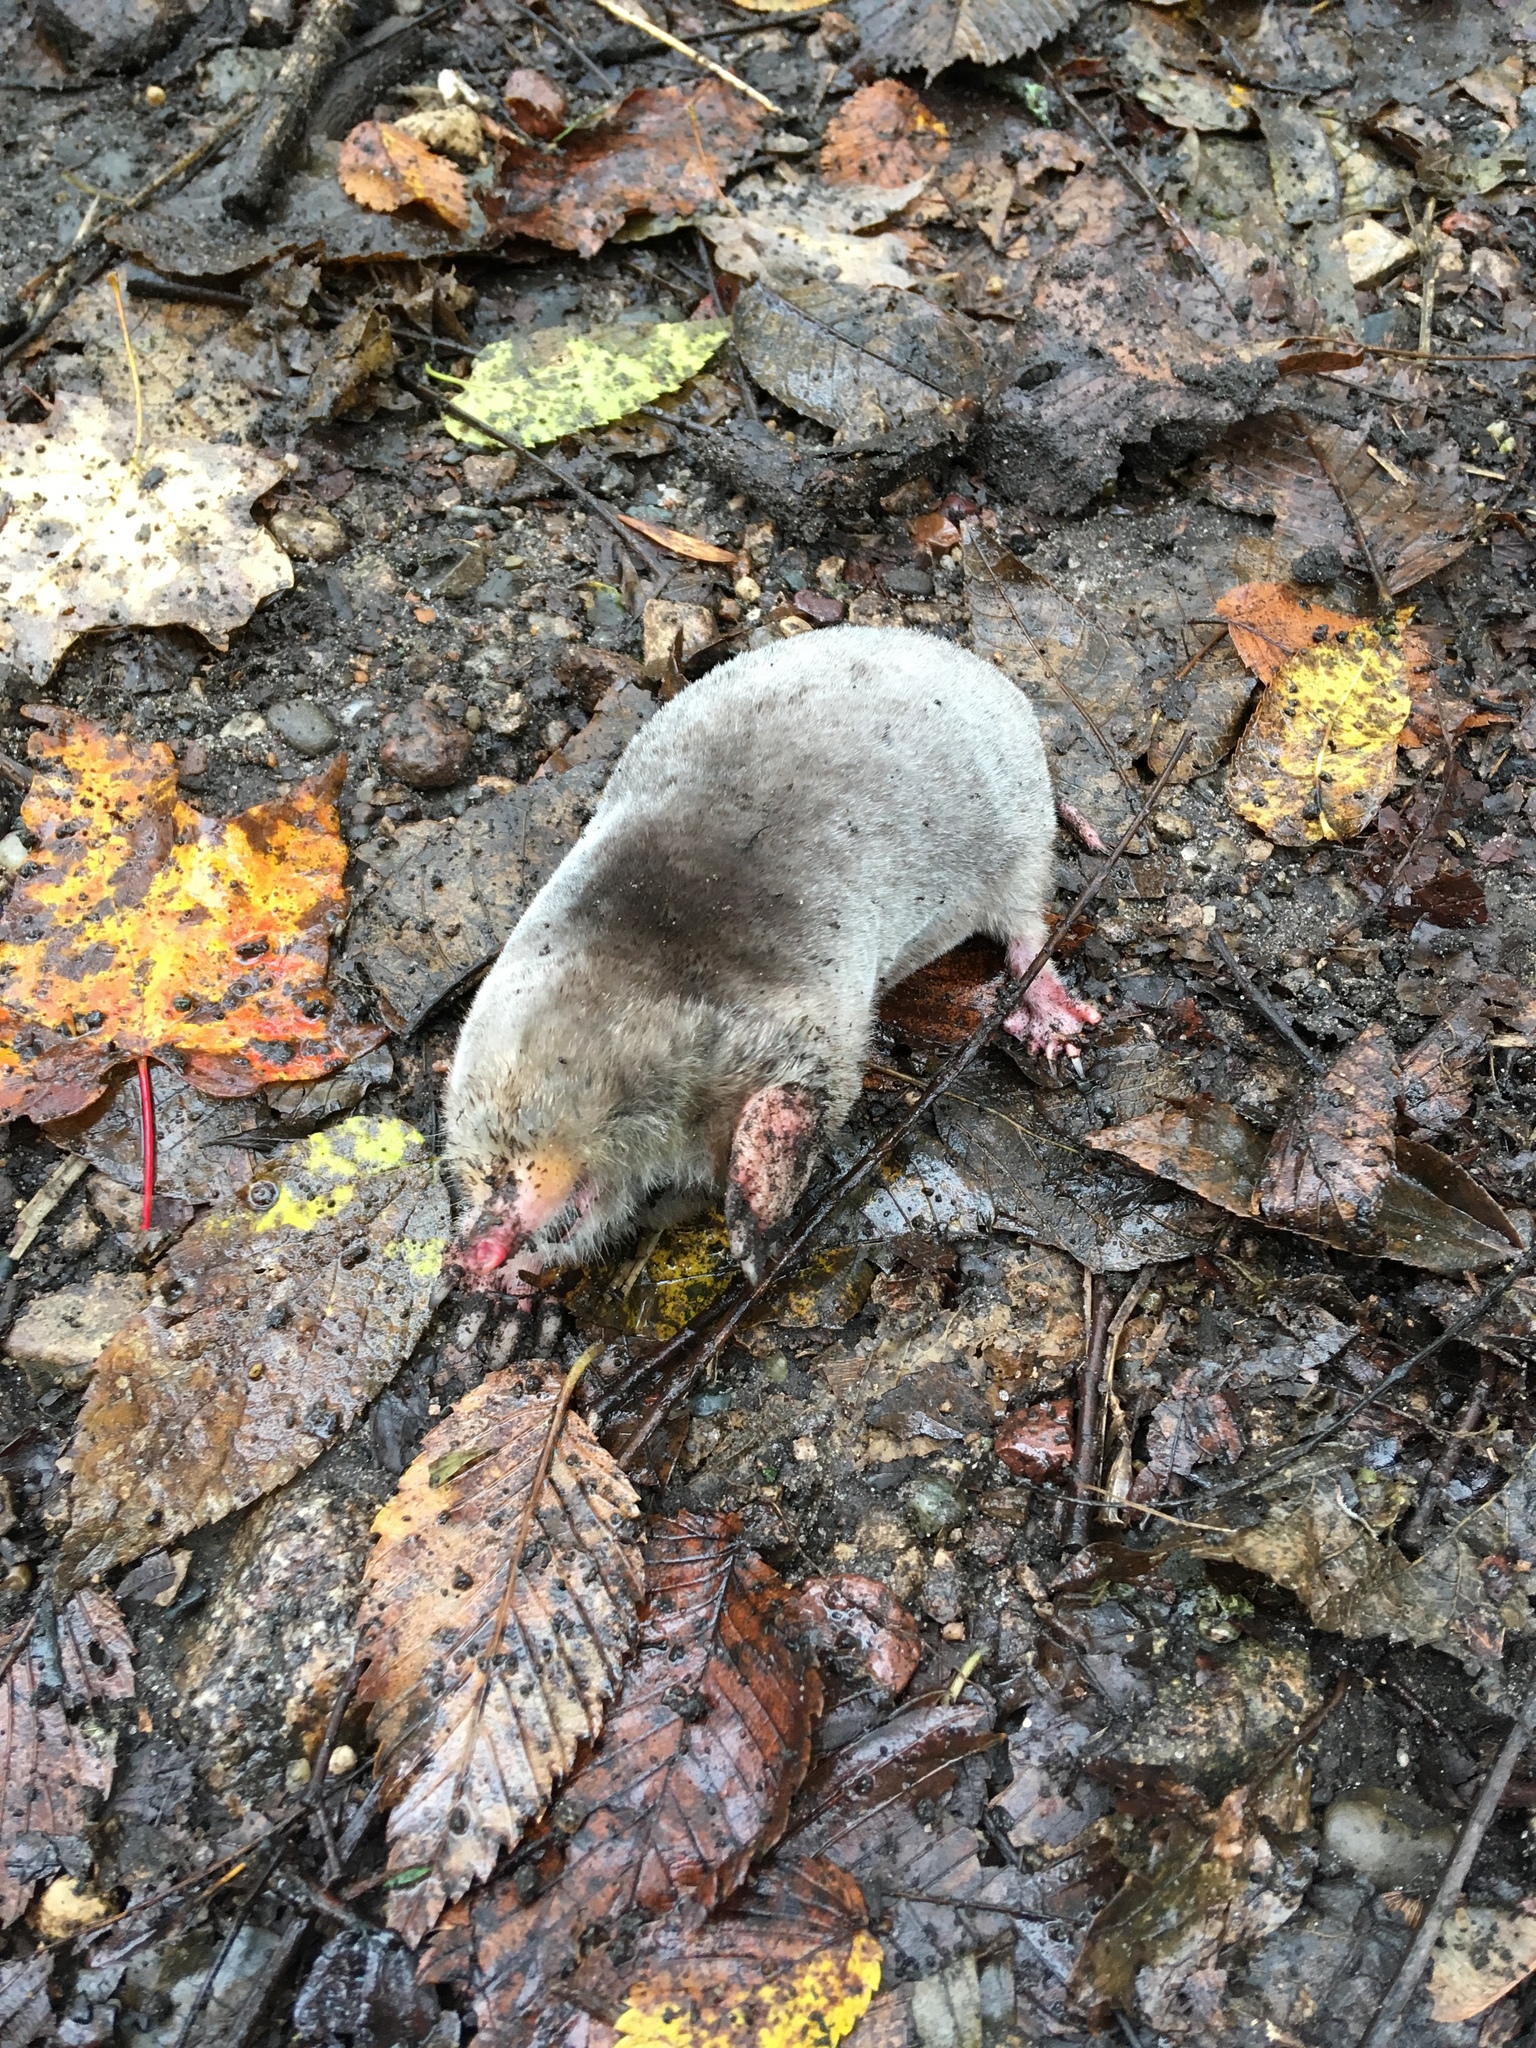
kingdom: Animalia
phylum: Chordata
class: Mammalia
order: Soricomorpha
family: Talpidae
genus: Scalopus
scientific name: Scalopus aquaticus
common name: Eastern mole
